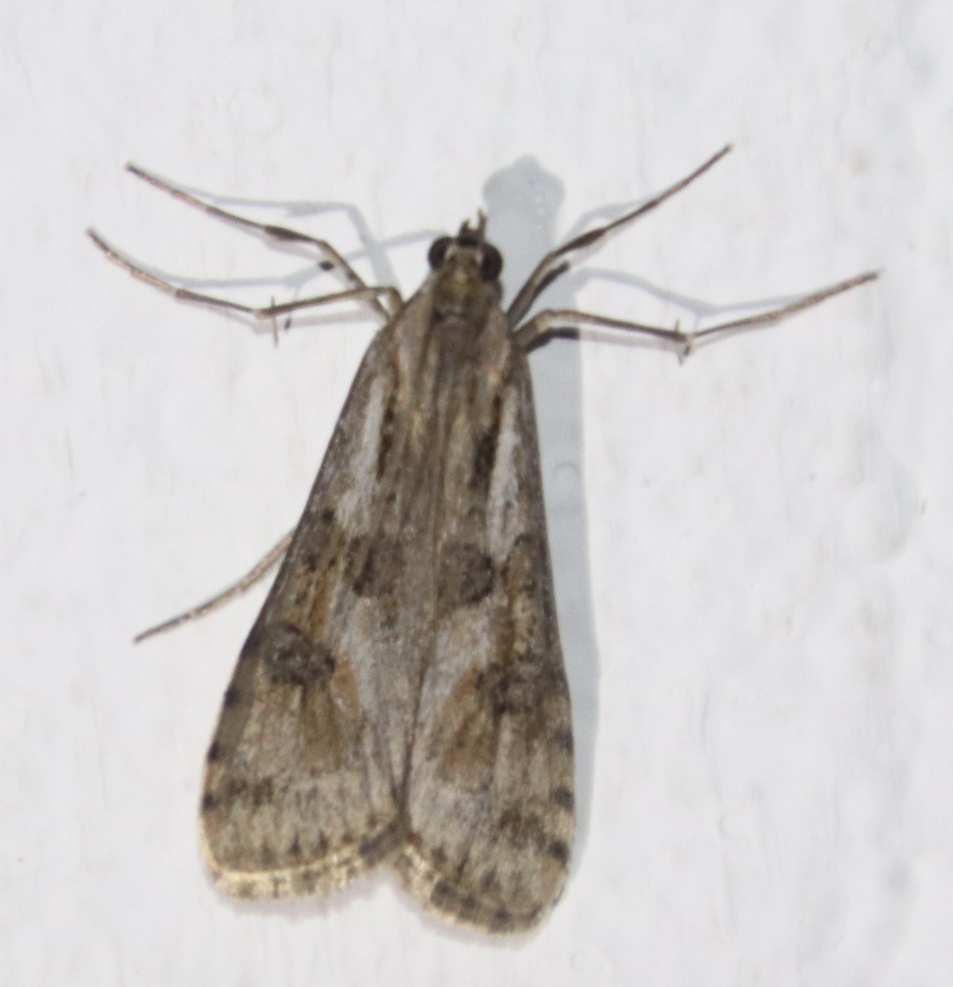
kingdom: Animalia
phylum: Arthropoda
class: Insecta
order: Lepidoptera
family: Crambidae
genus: Nomophila
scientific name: Nomophila noctuella
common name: Rush veneer
